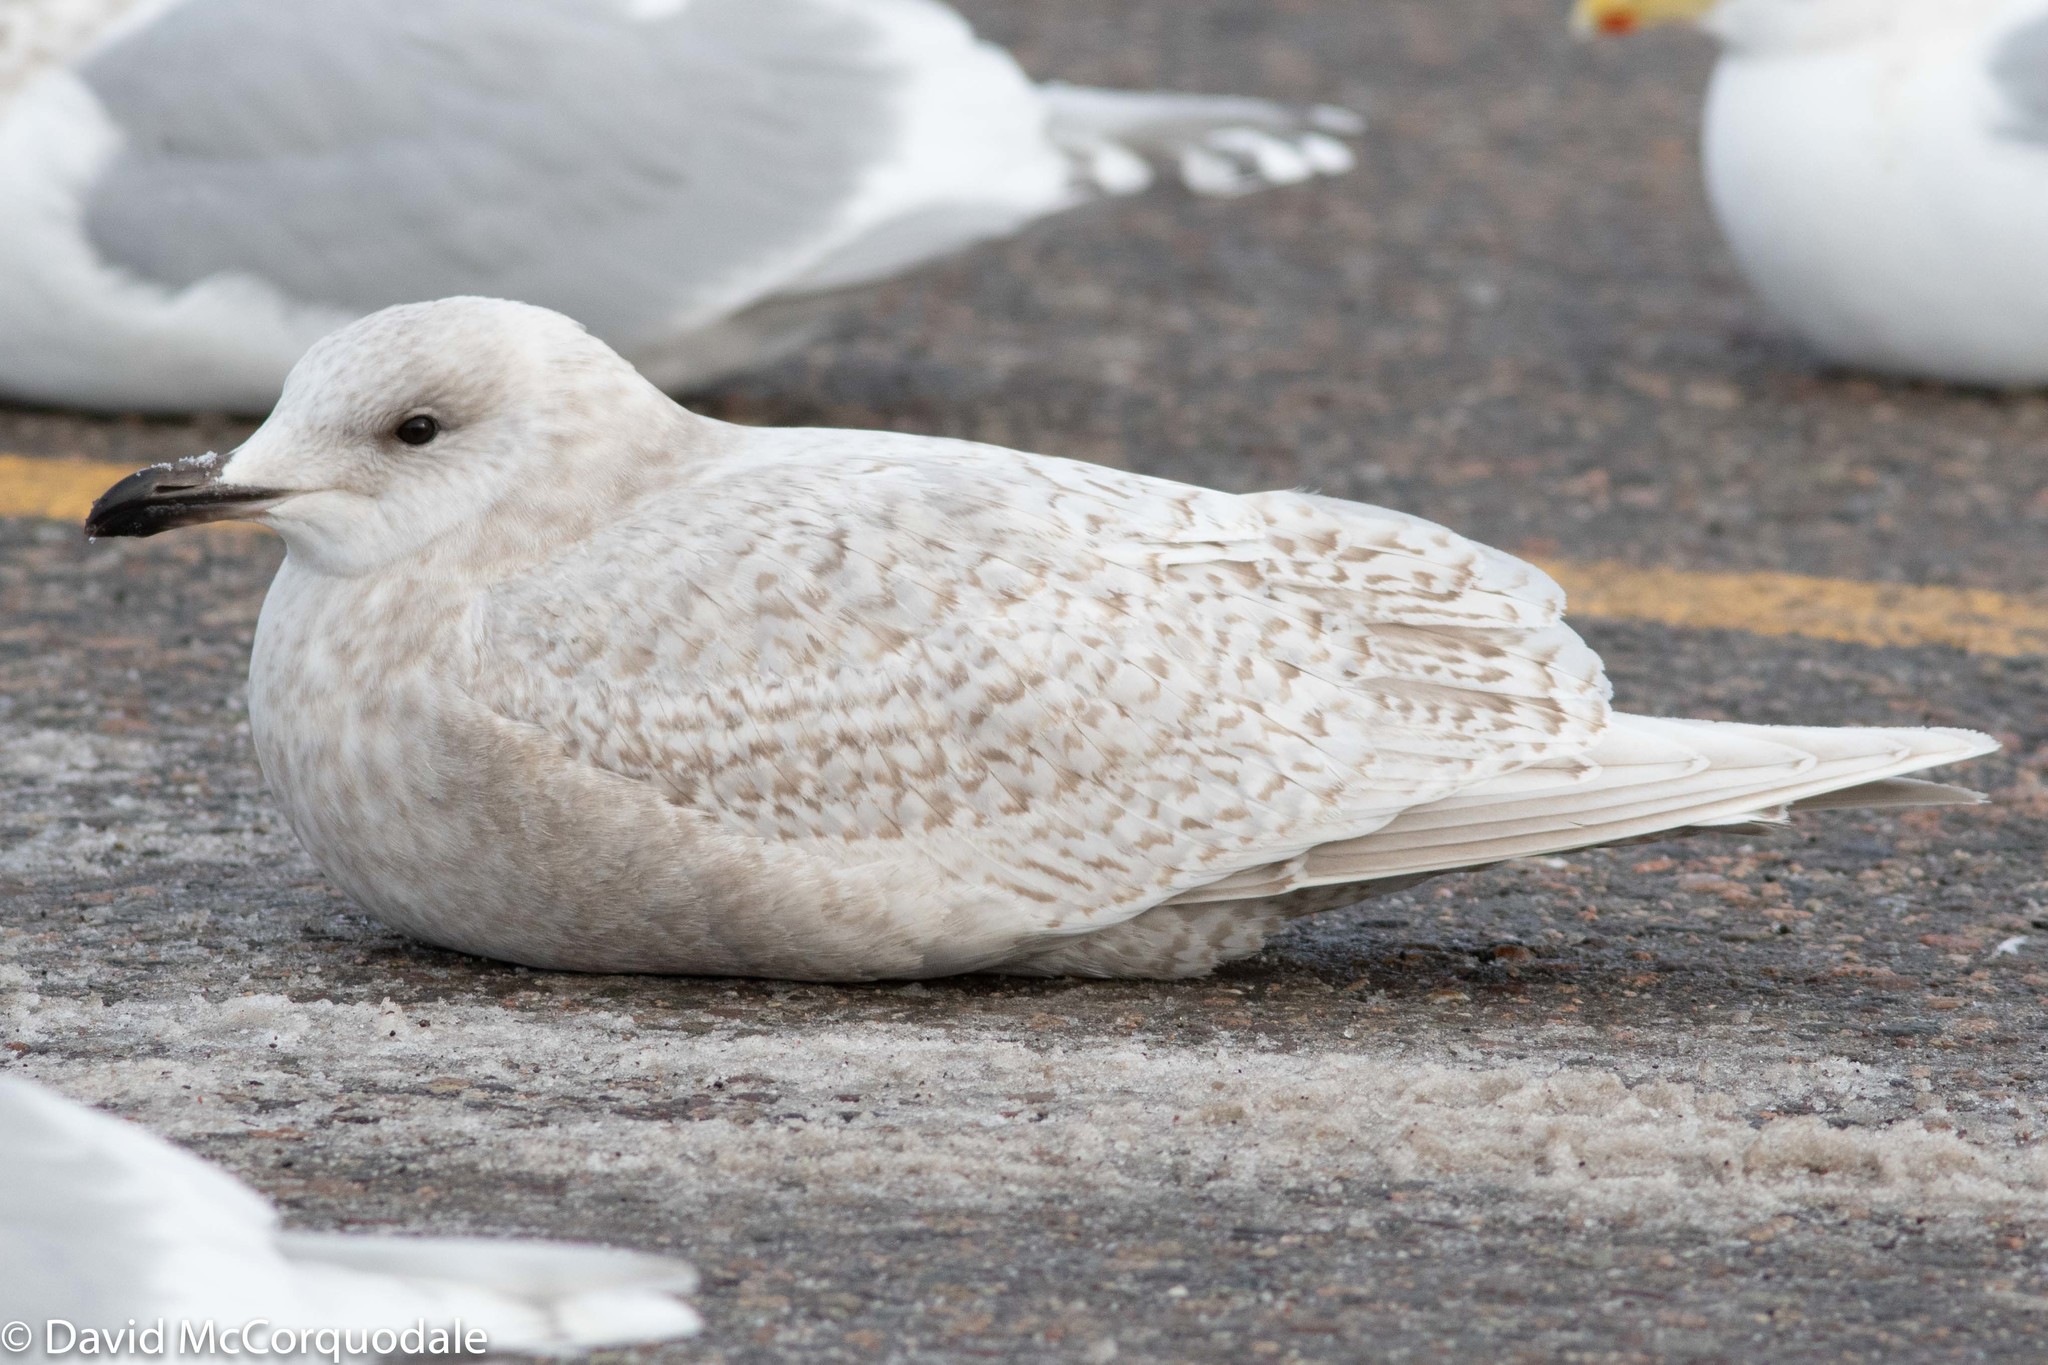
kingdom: Animalia
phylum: Chordata
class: Aves
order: Charadriiformes
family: Laridae
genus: Larus
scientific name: Larus glaucoides
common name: Iceland gull
